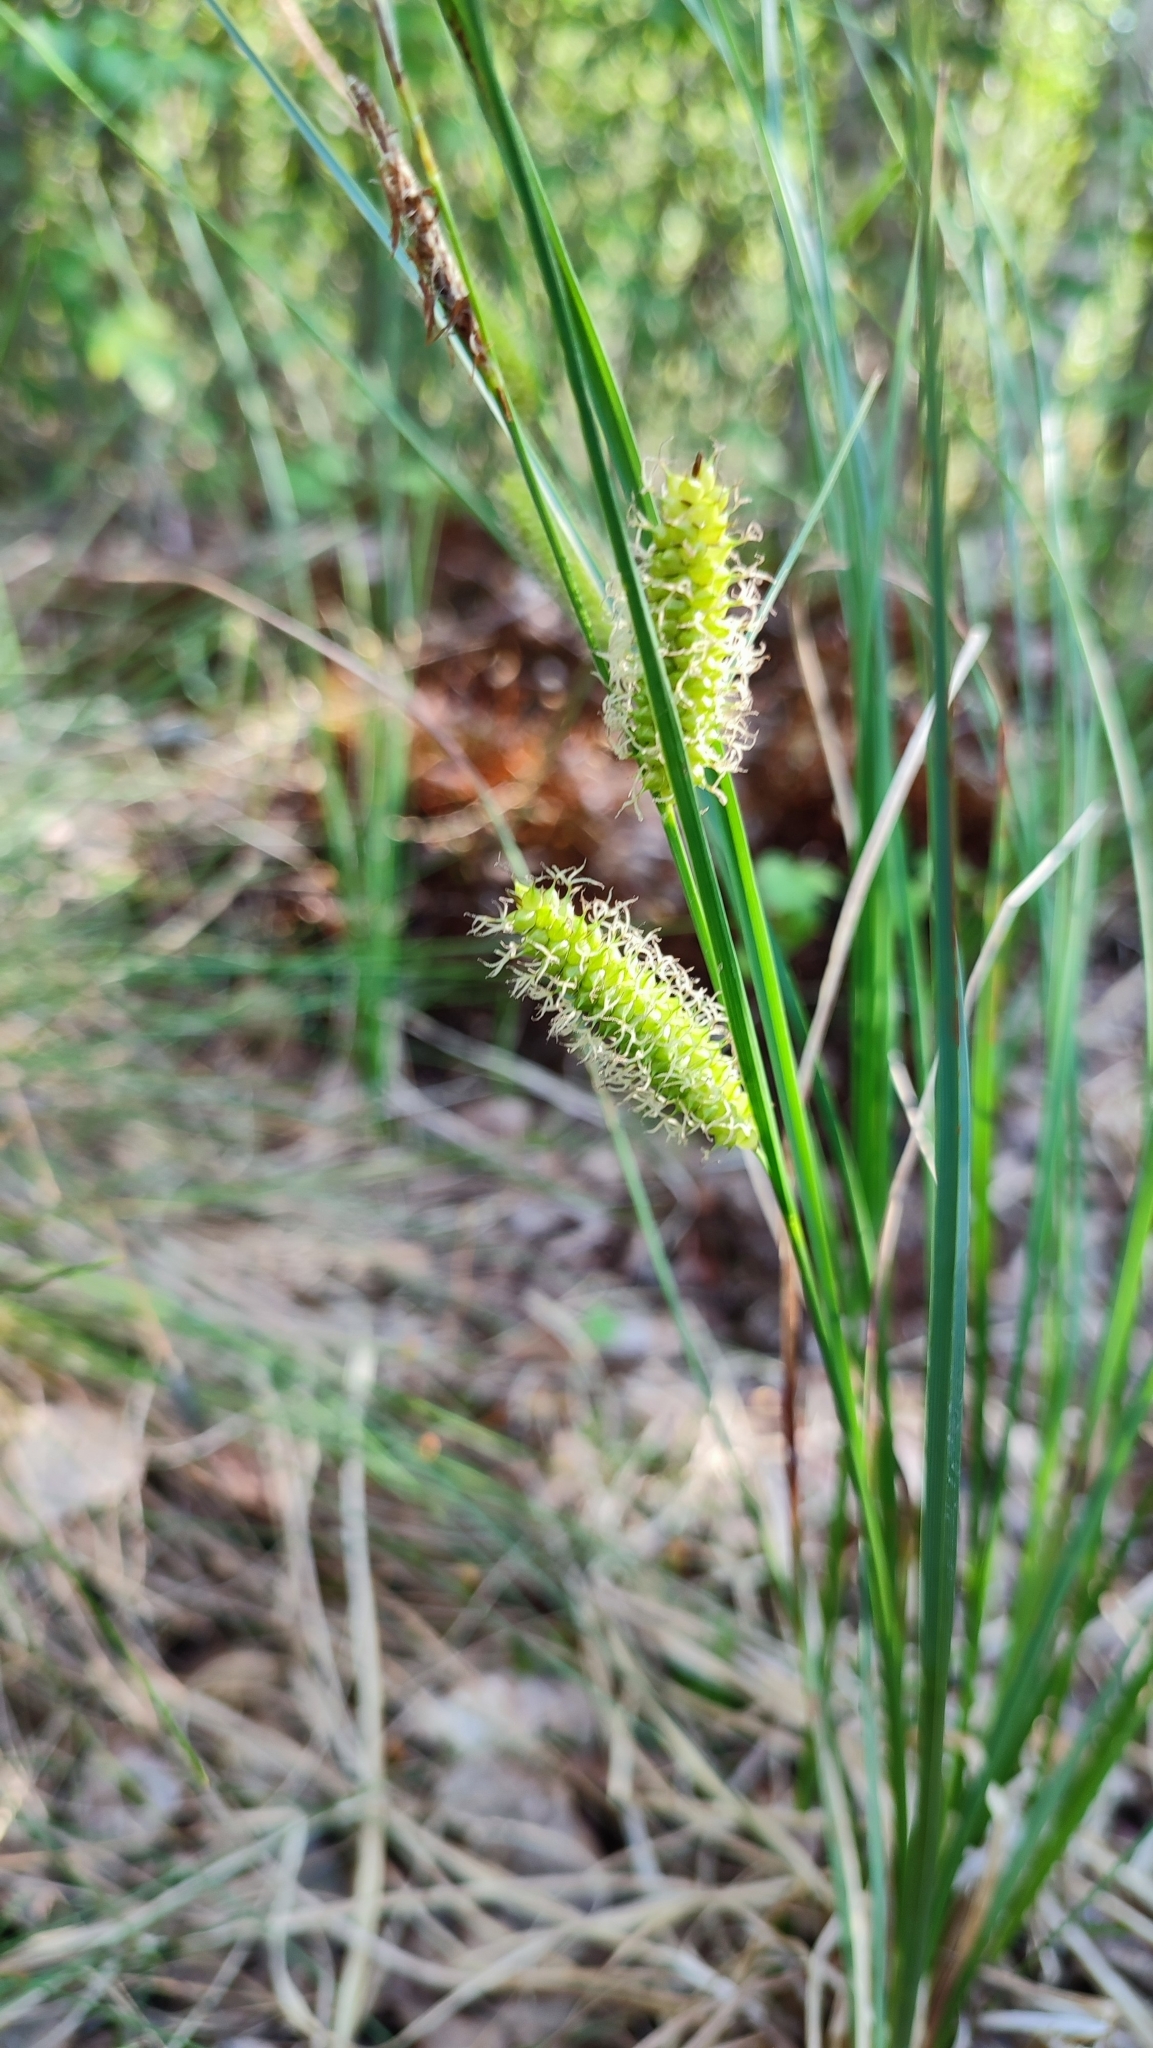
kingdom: Plantae
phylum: Tracheophyta
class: Liliopsida
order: Poales
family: Cyperaceae
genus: Carex
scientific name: Carex vesicaria
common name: Bladder-sedge
